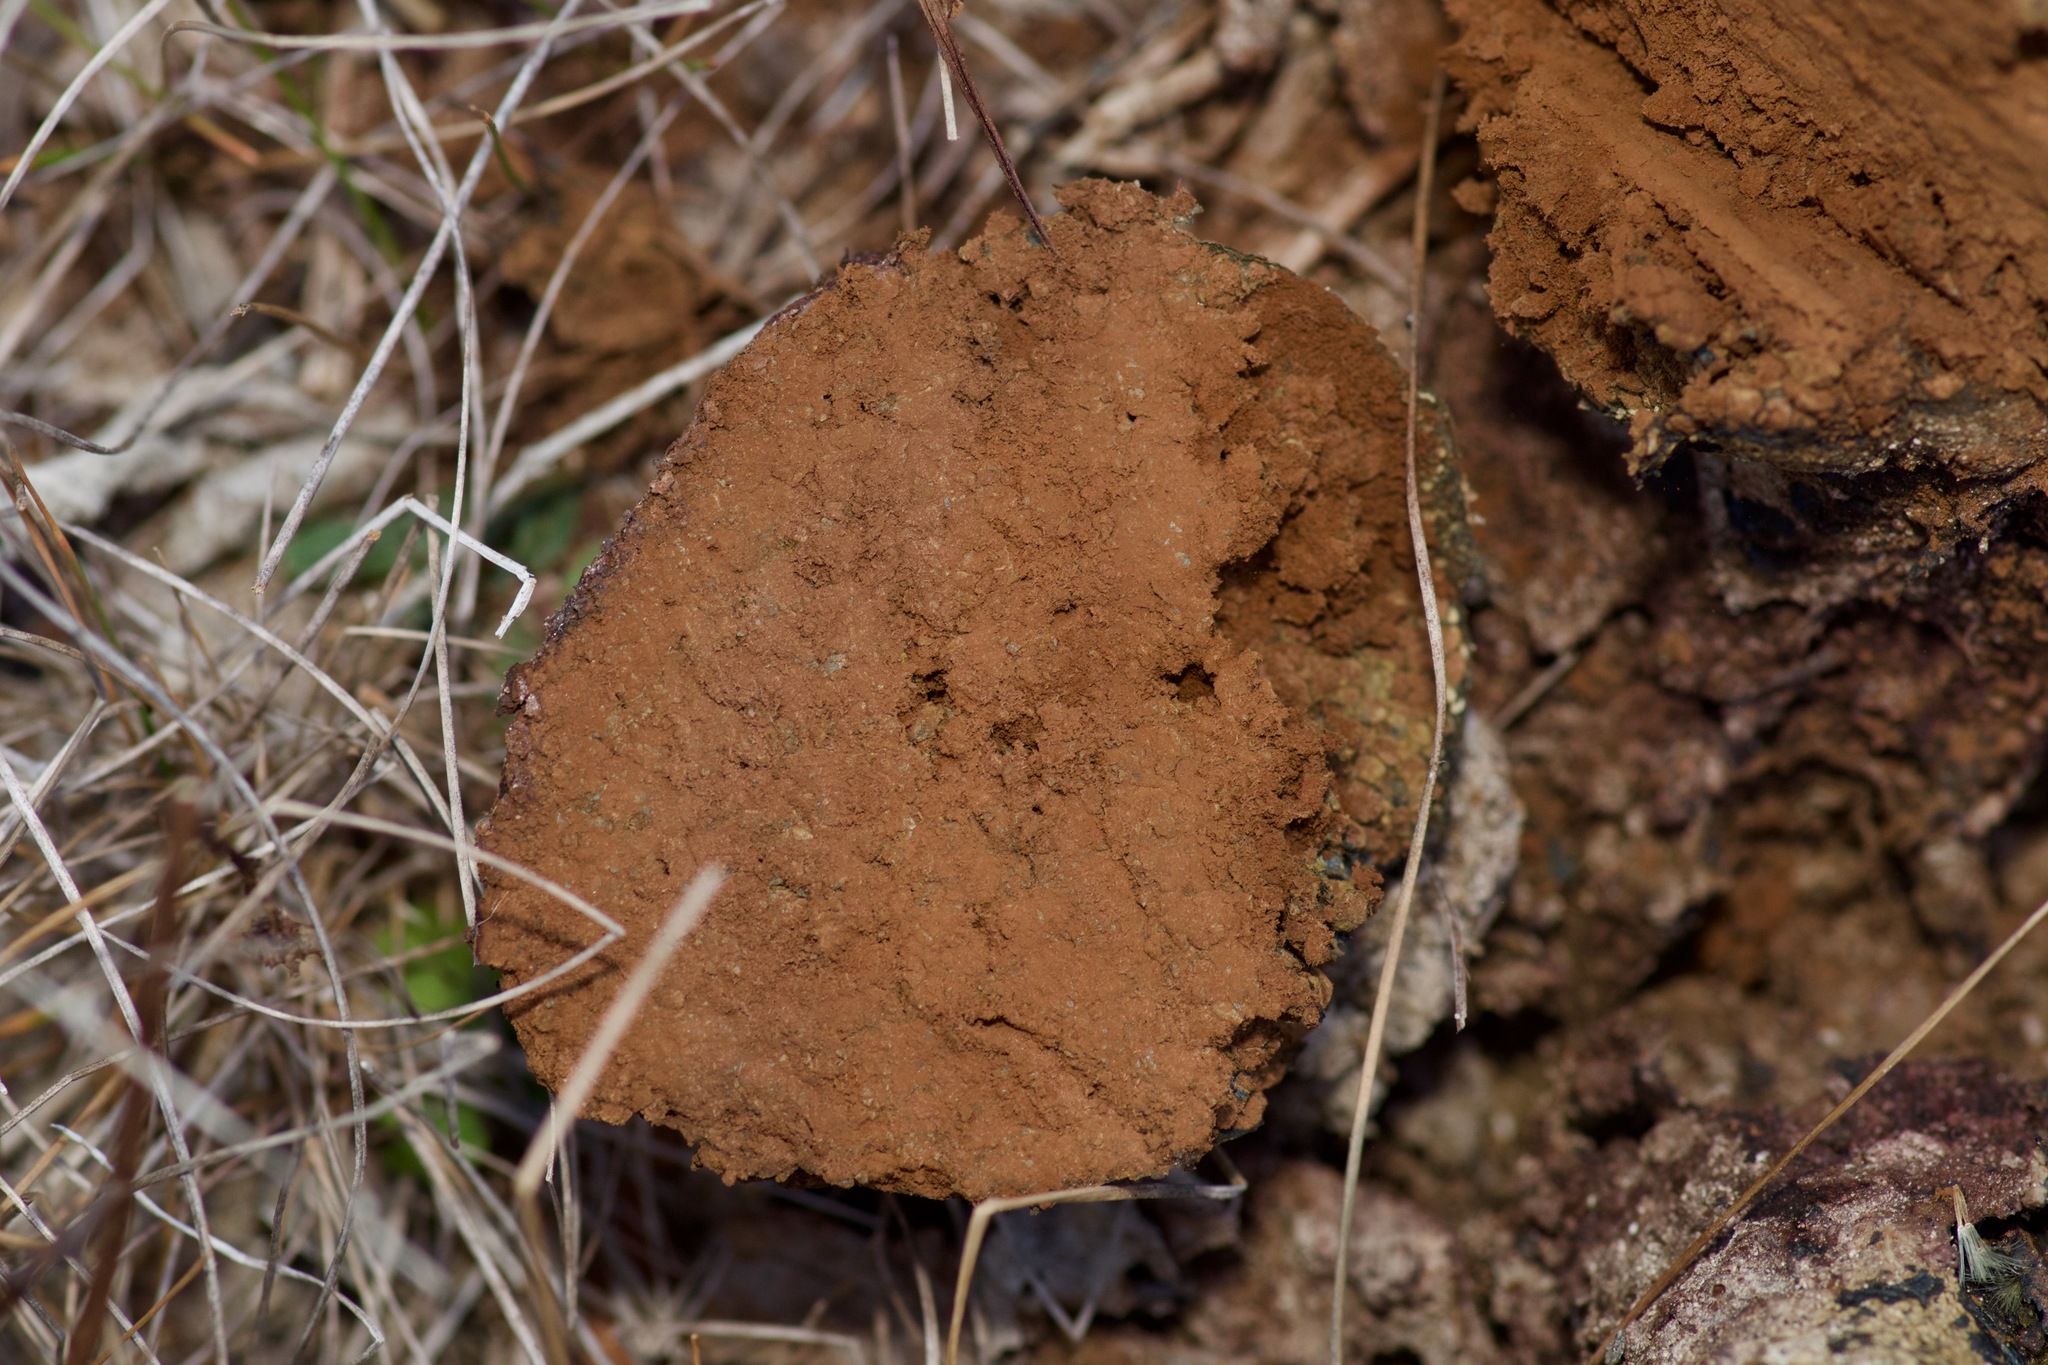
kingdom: Fungi
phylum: Basidiomycota
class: Agaricomycetes
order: Boletales
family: Sclerodermataceae
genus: Pisolithus
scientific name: Pisolithus arhizus
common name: Dyeball
